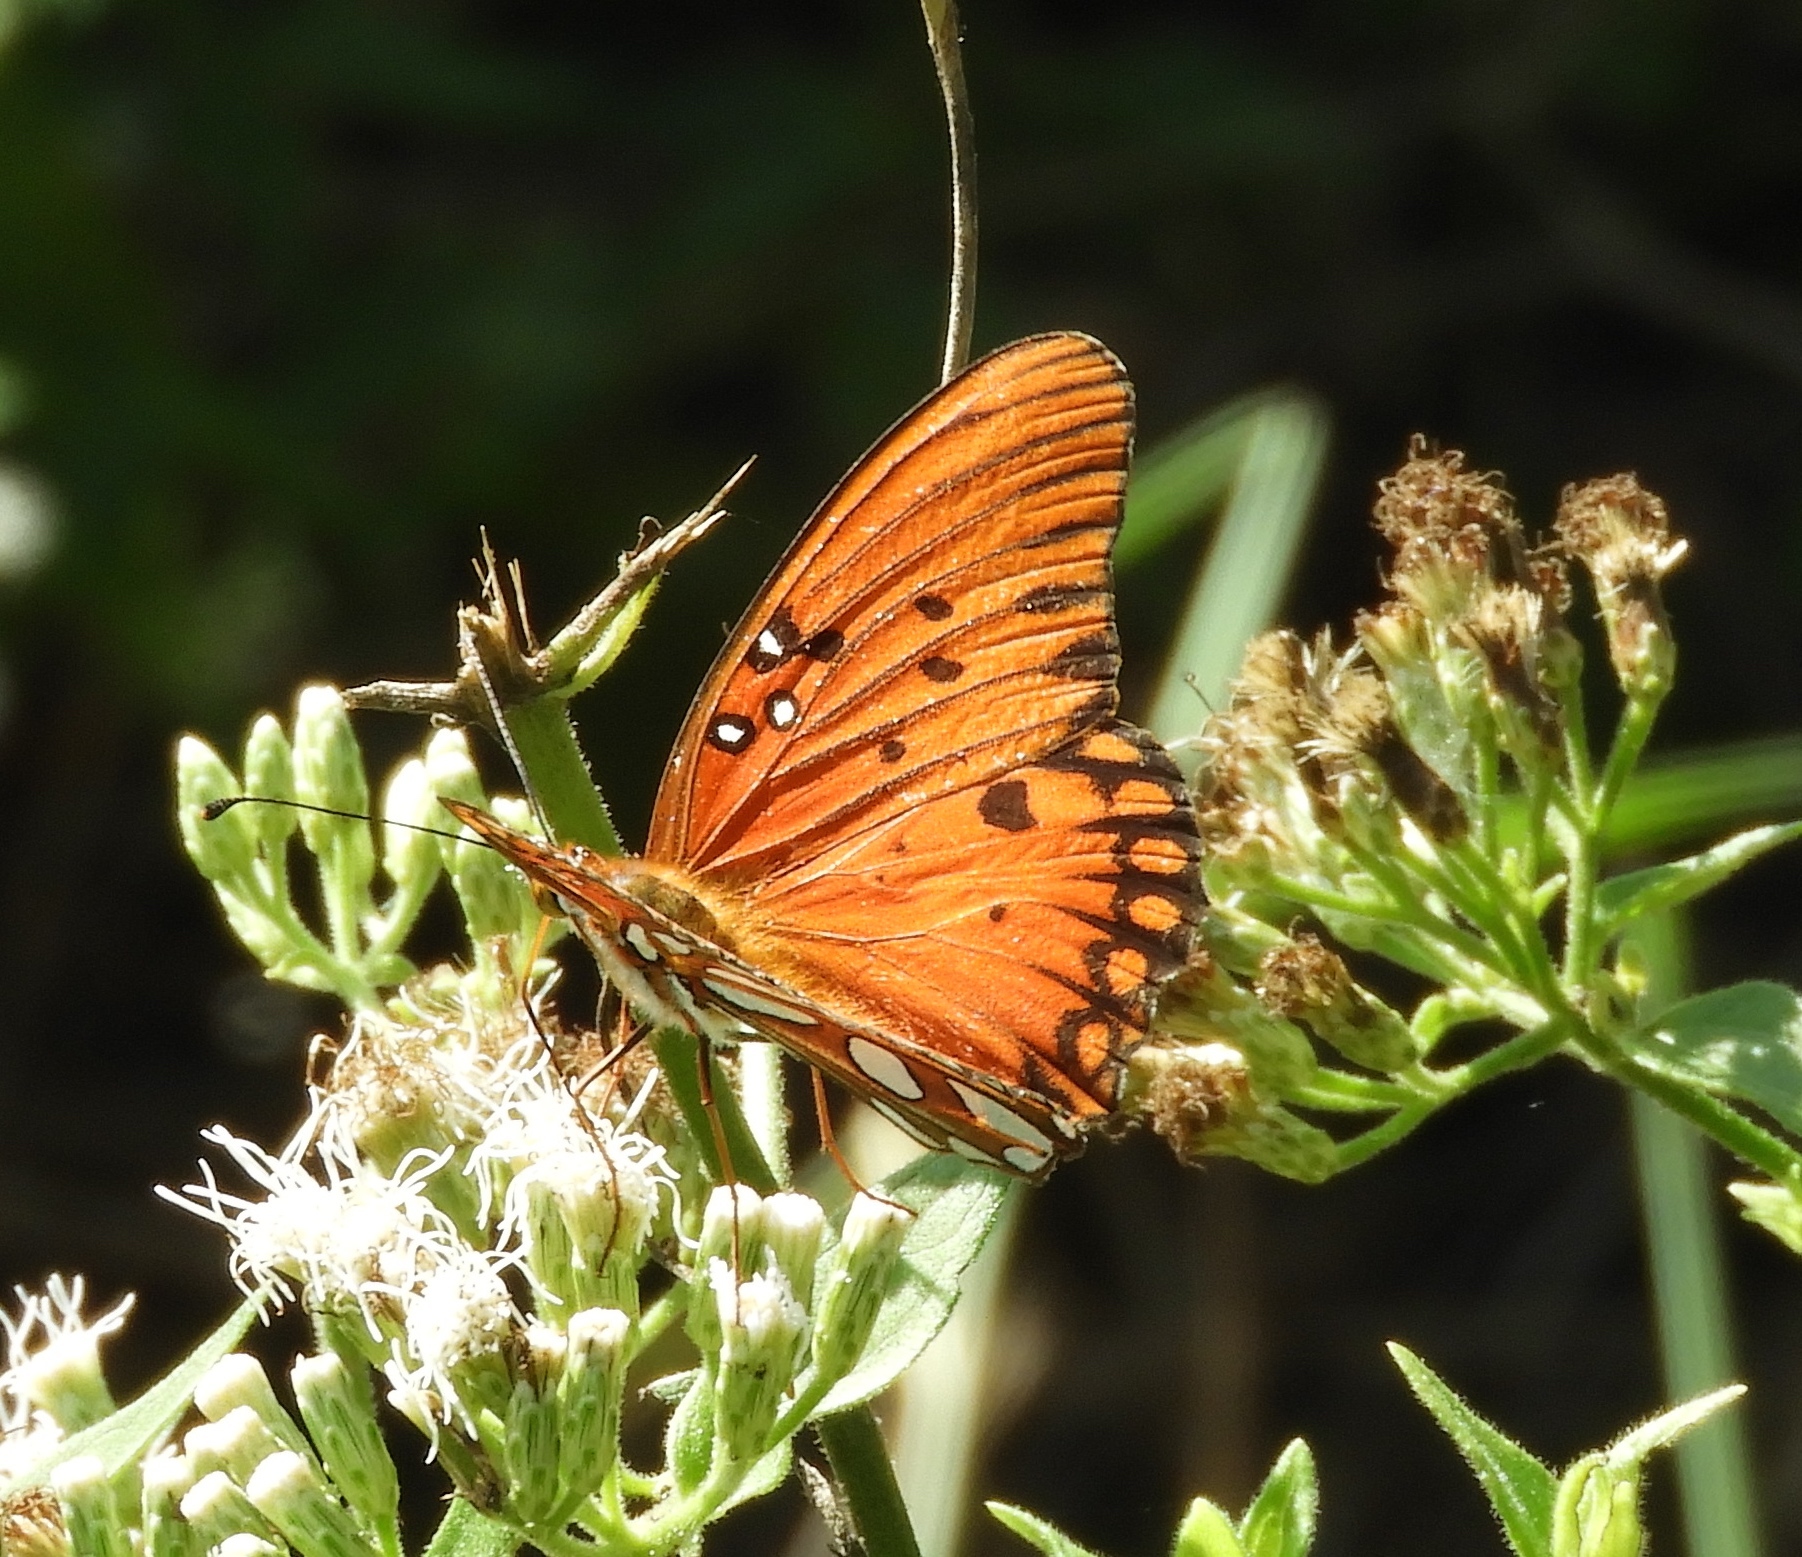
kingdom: Animalia
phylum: Arthropoda
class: Insecta
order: Lepidoptera
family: Nymphalidae
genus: Dione
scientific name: Dione vanillae
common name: Gulf fritillary
